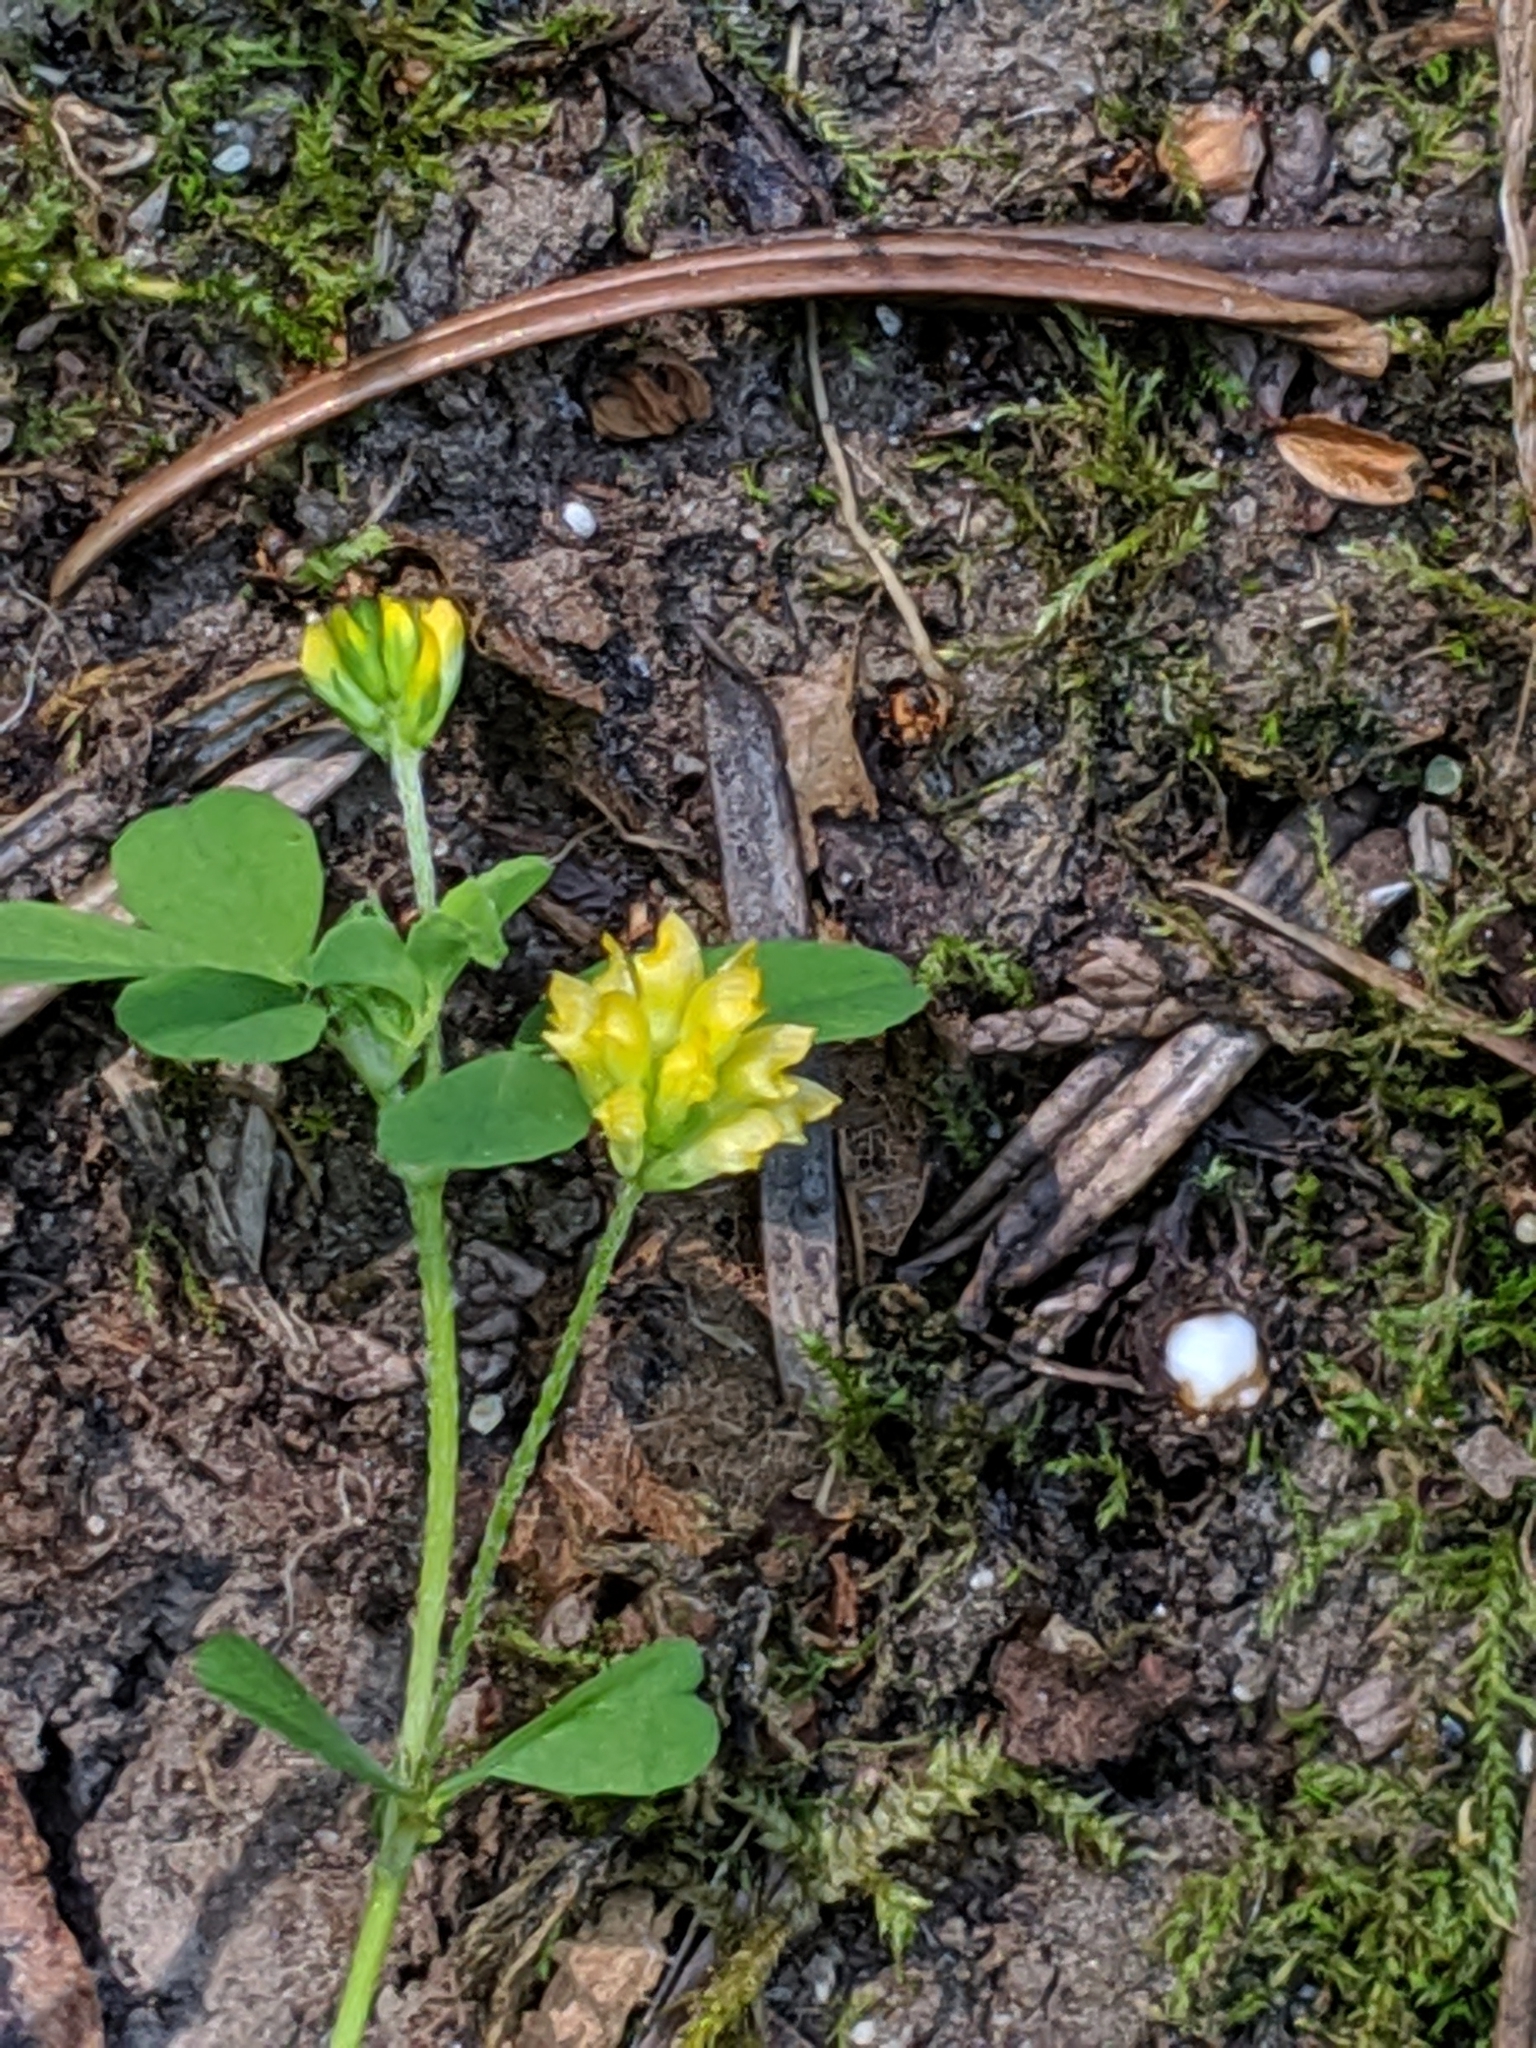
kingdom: Plantae
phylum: Tracheophyta
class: Magnoliopsida
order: Fabales
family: Fabaceae
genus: Trifolium
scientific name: Trifolium dubium
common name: Suckling clover
